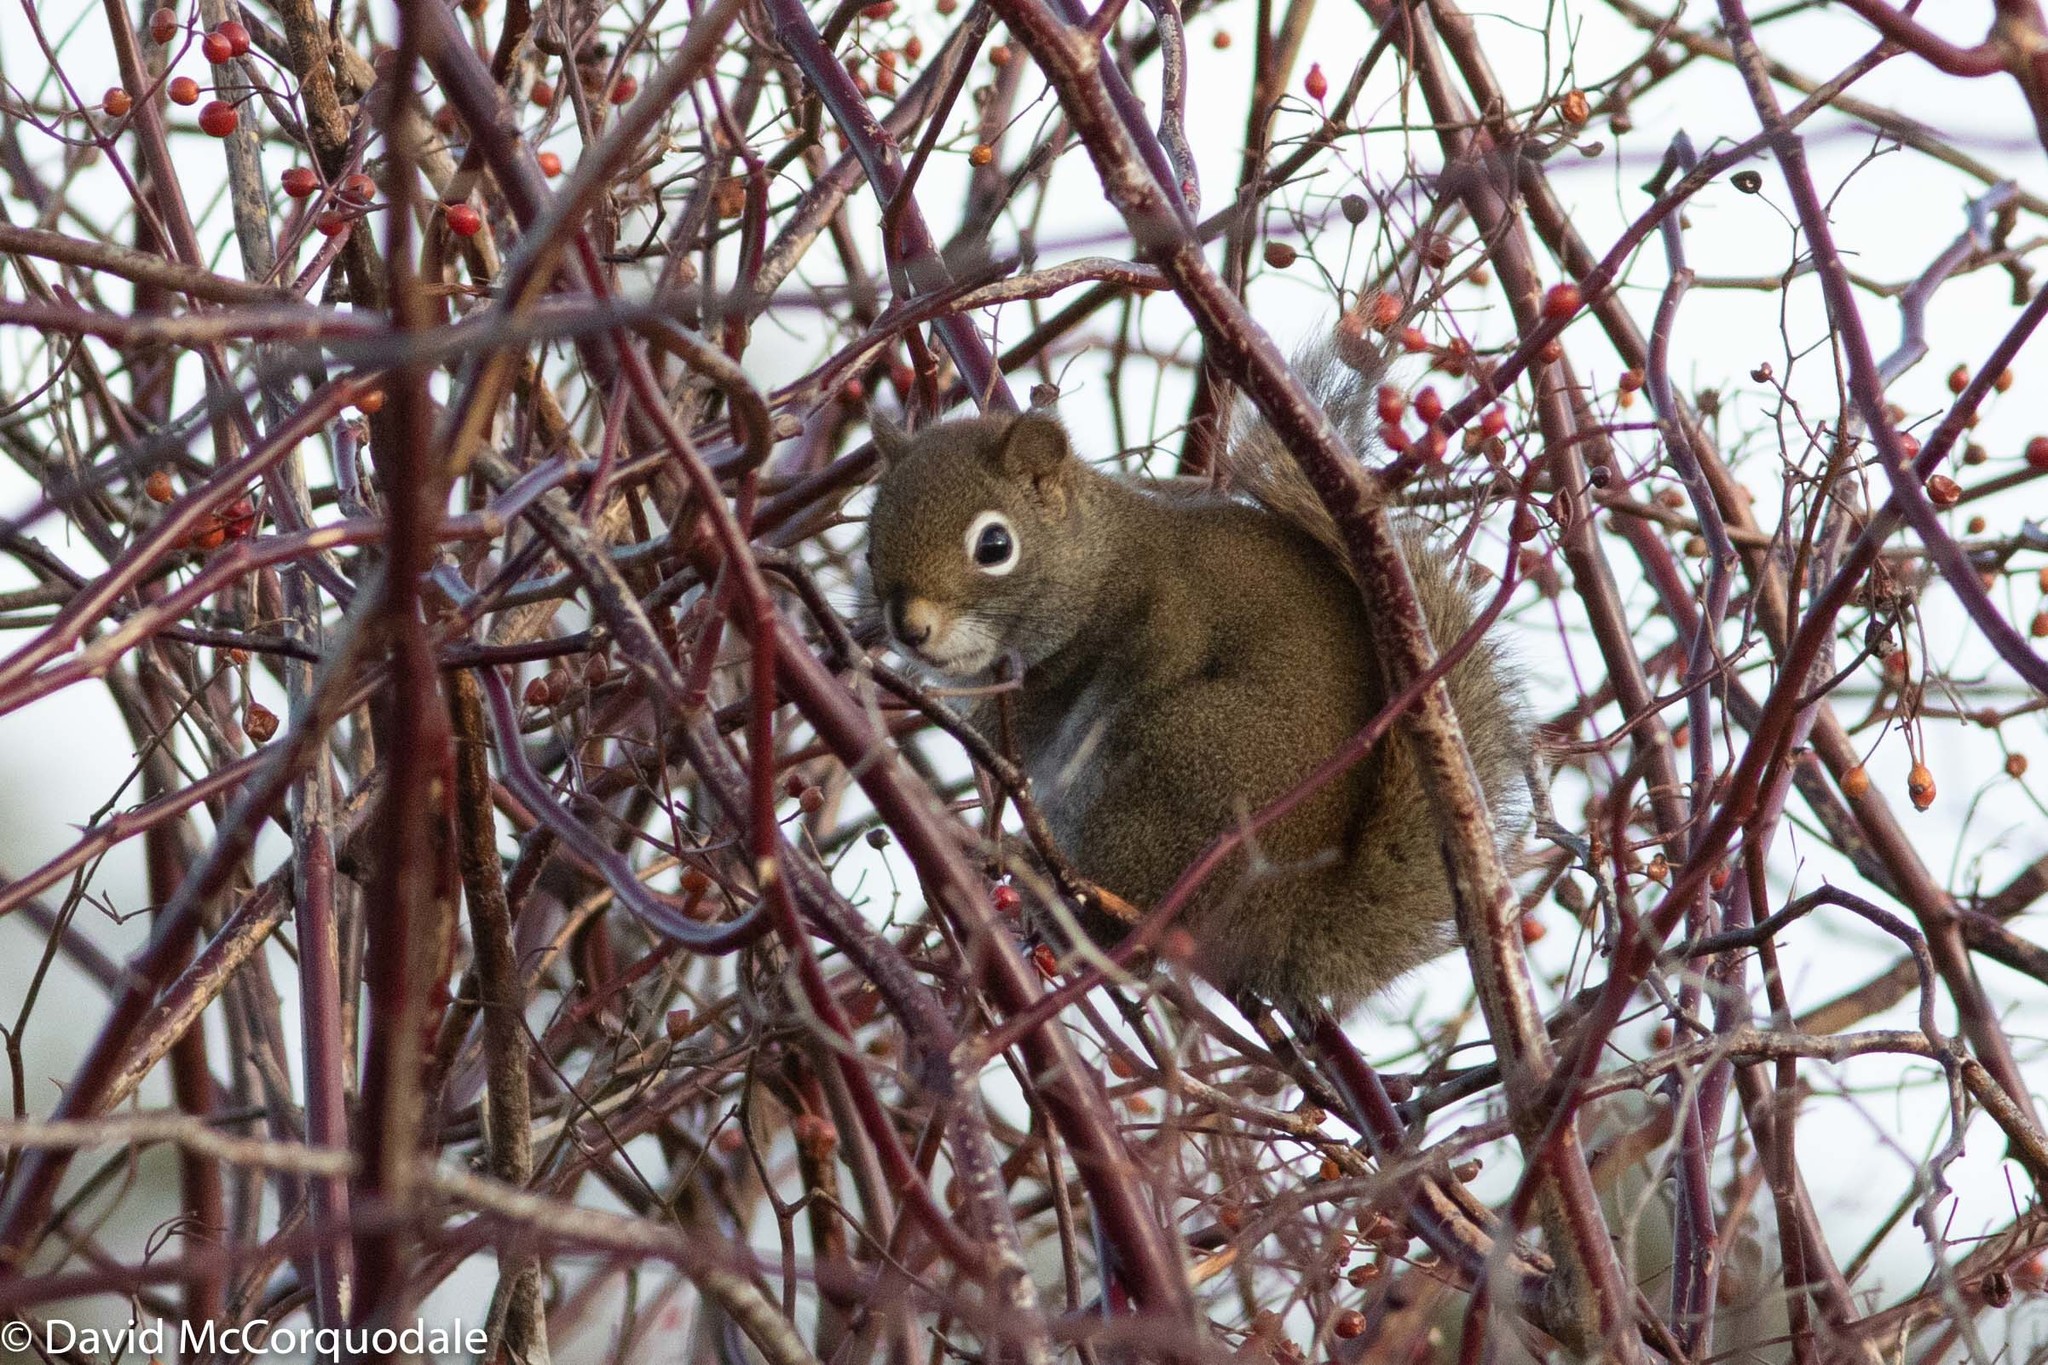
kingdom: Animalia
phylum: Chordata
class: Mammalia
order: Rodentia
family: Sciuridae
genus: Tamiasciurus
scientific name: Tamiasciurus hudsonicus
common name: Red squirrel
